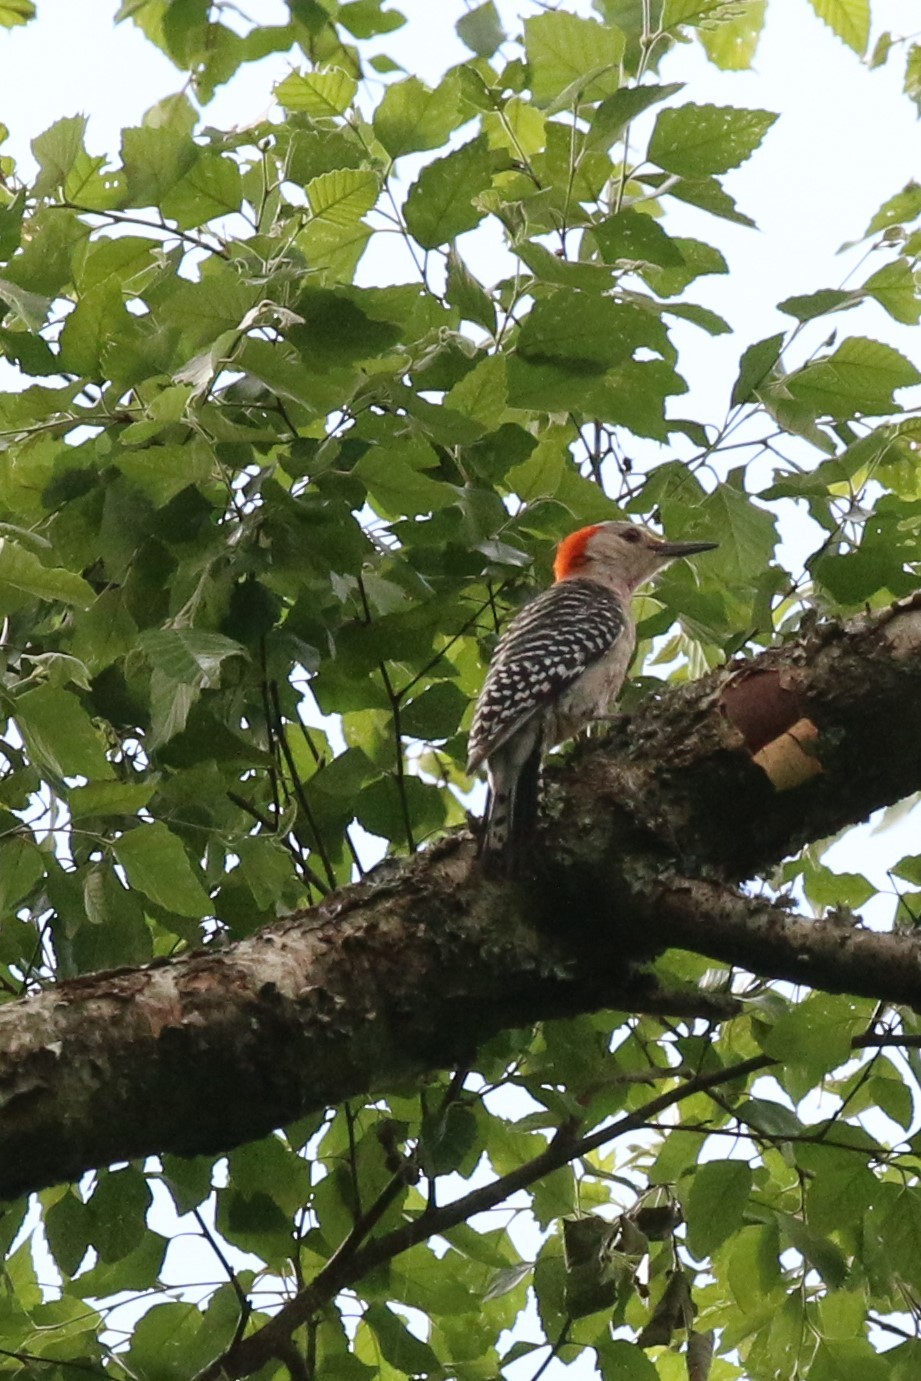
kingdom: Animalia
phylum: Chordata
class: Aves
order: Piciformes
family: Picidae
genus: Melanerpes
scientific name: Melanerpes carolinus
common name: Red-bellied woodpecker
